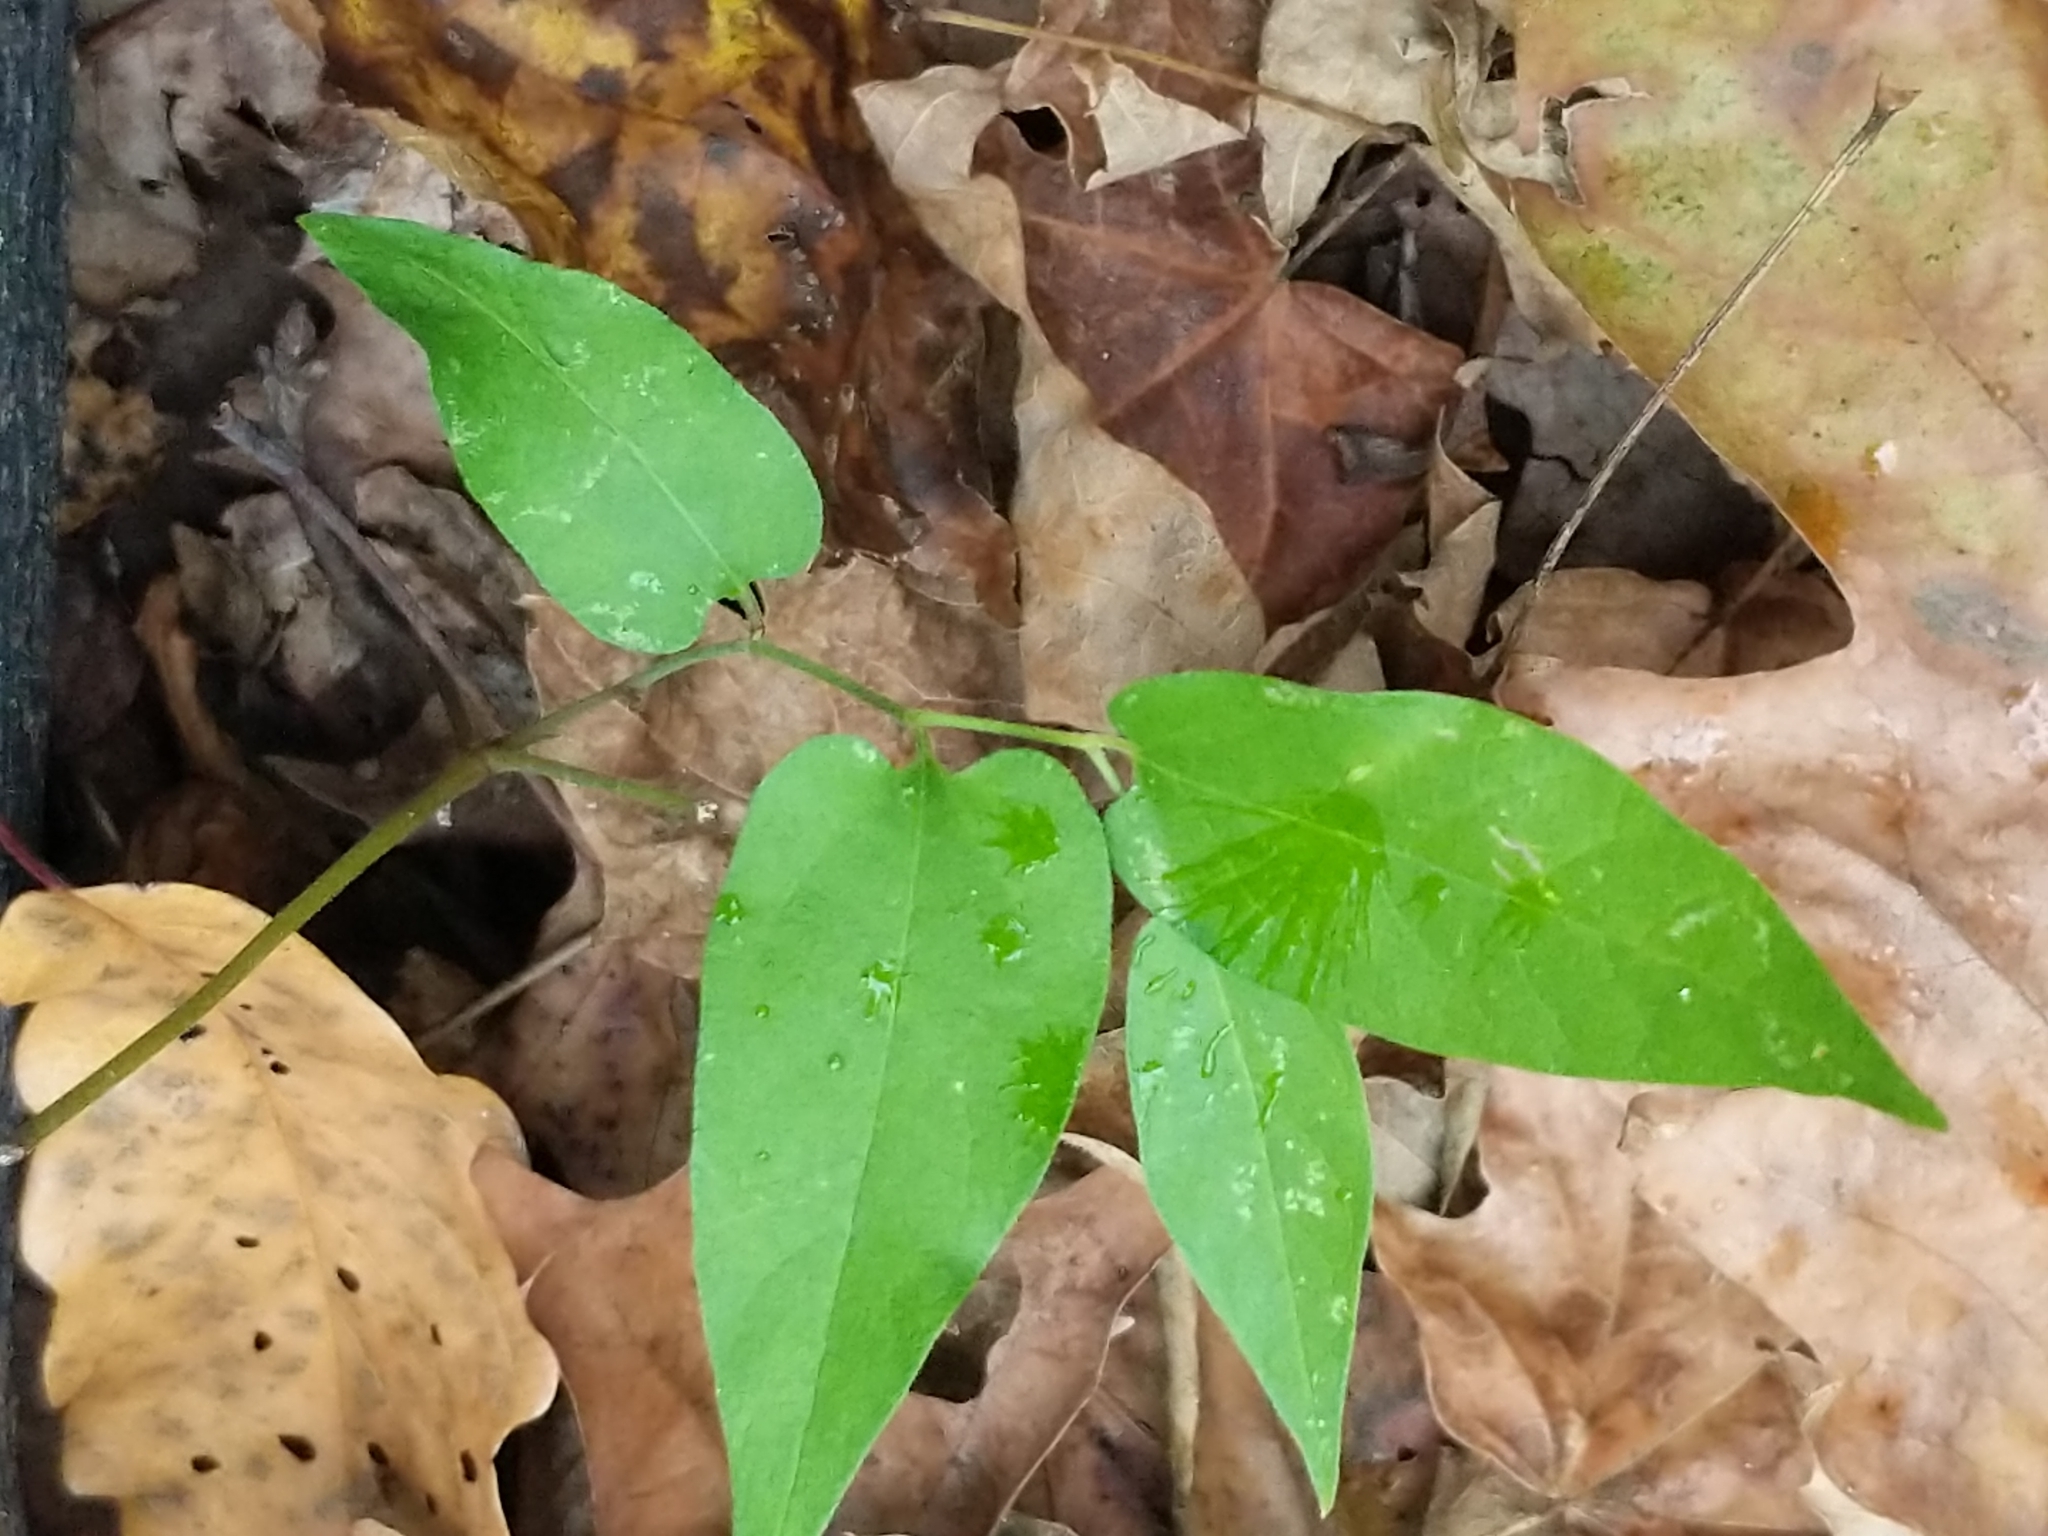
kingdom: Plantae
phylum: Tracheophyta
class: Magnoliopsida
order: Piperales
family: Aristolochiaceae
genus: Endodeca
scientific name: Endodeca serpentaria
